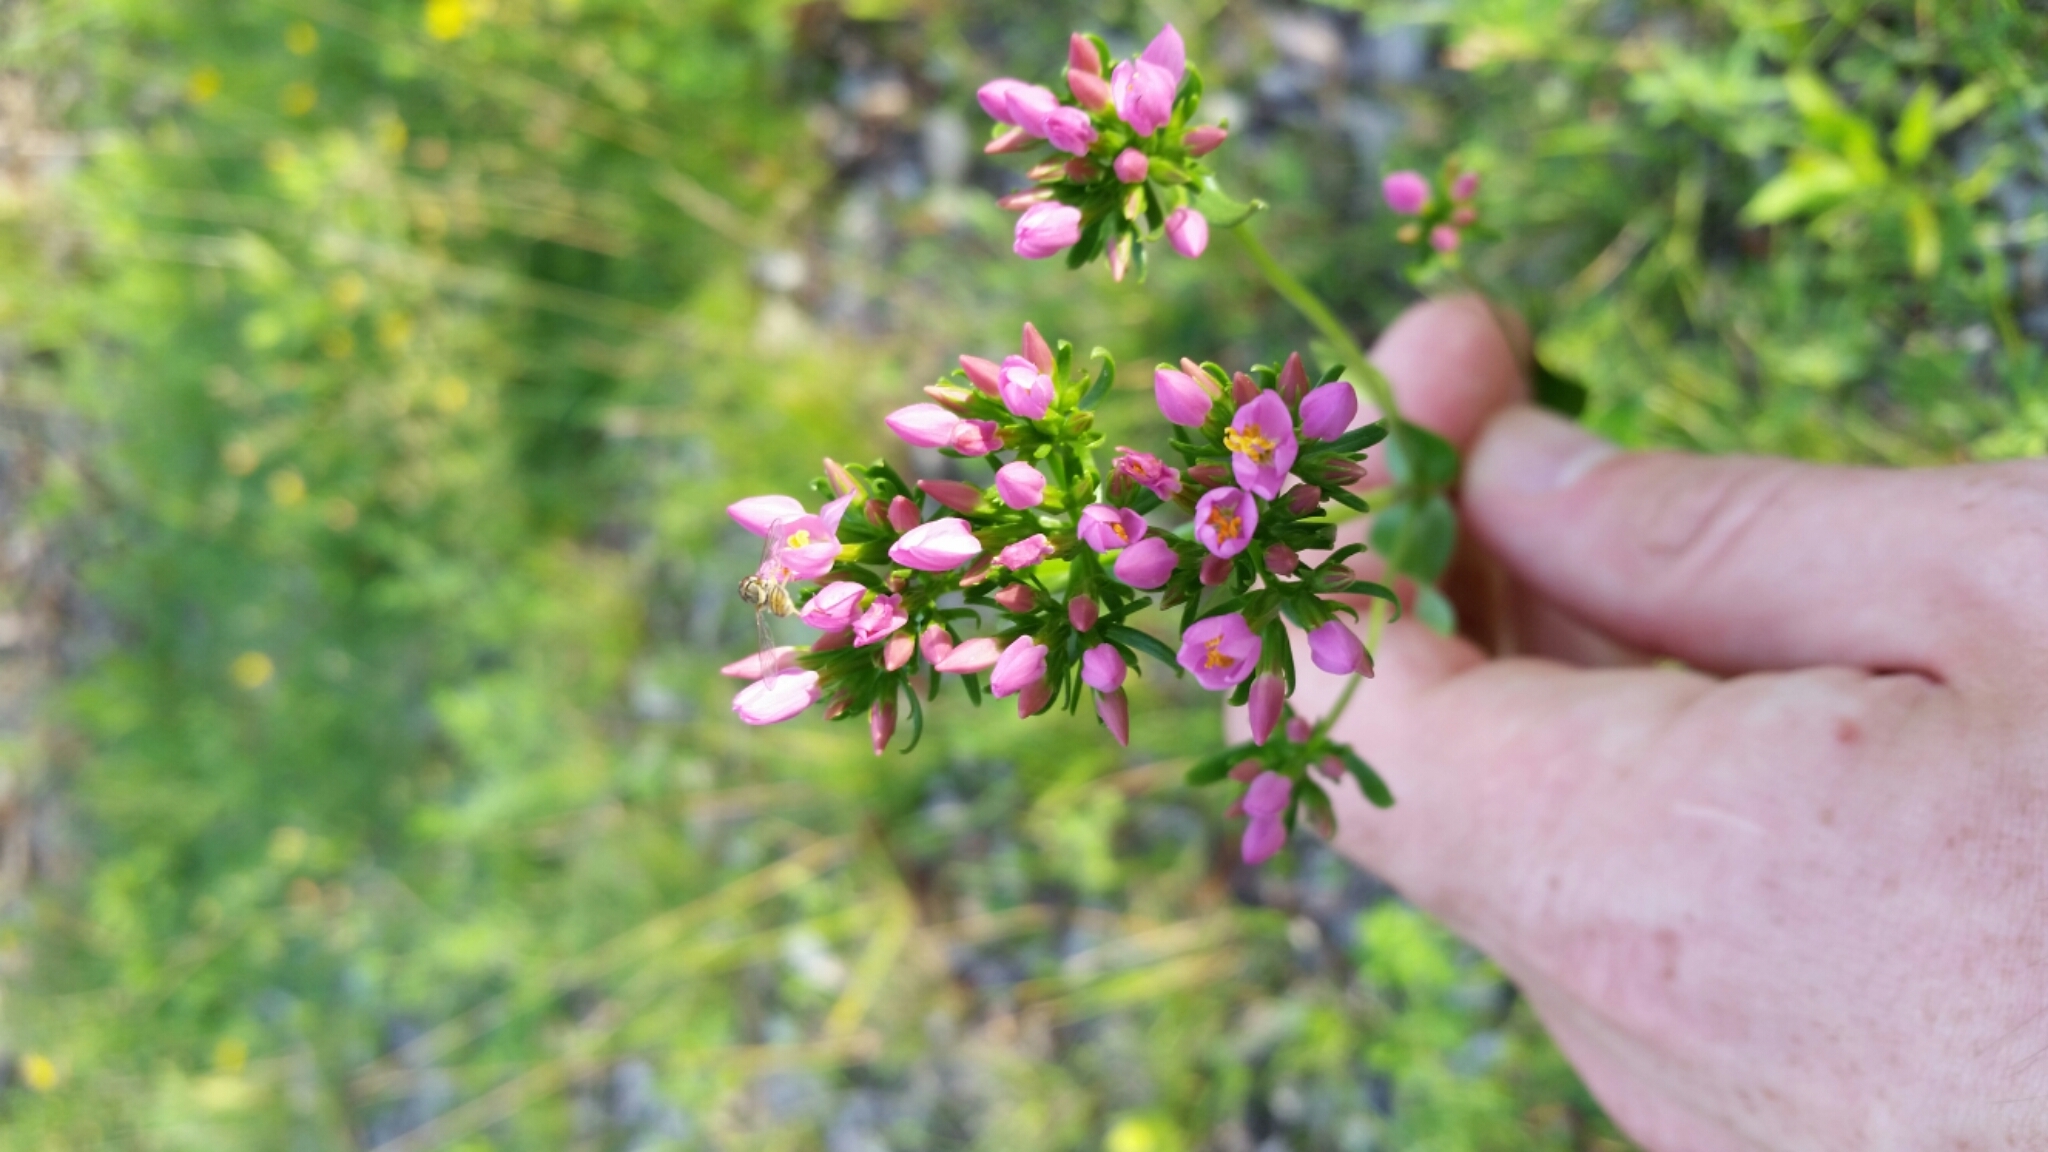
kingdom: Plantae
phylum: Tracheophyta
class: Magnoliopsida
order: Gentianales
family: Gentianaceae
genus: Centaurium
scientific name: Centaurium erythraea
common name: Common centaury
